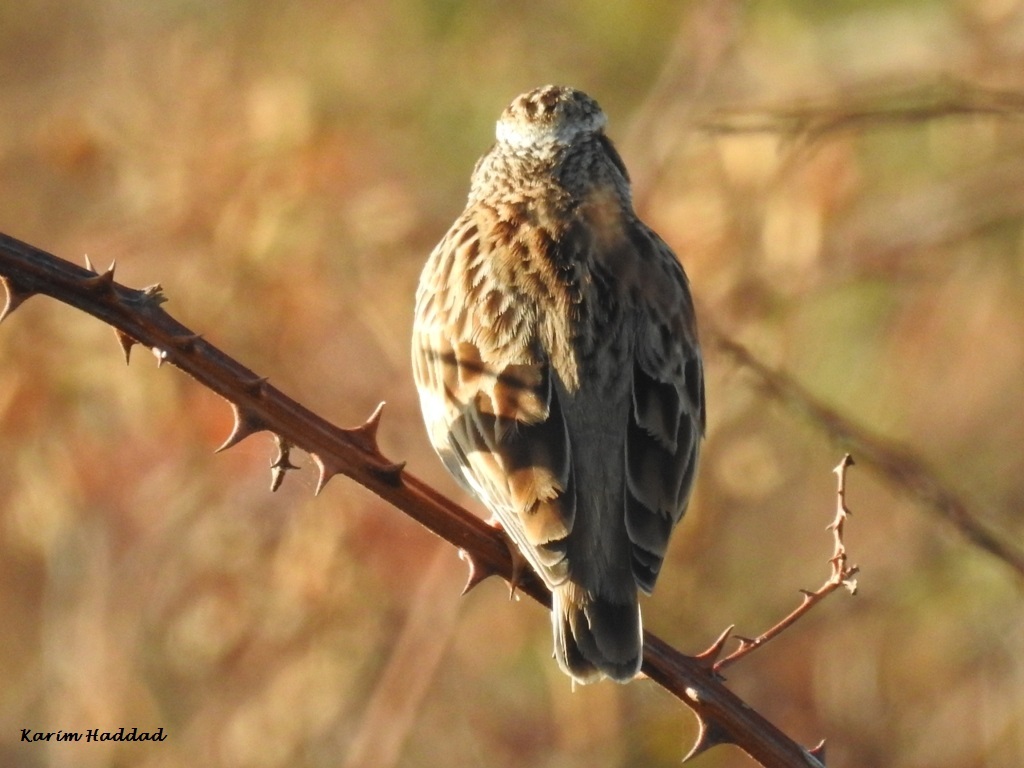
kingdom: Animalia
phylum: Chordata
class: Aves
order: Passeriformes
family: Alaudidae
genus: Lullula
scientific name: Lullula arborea
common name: Woodlark
